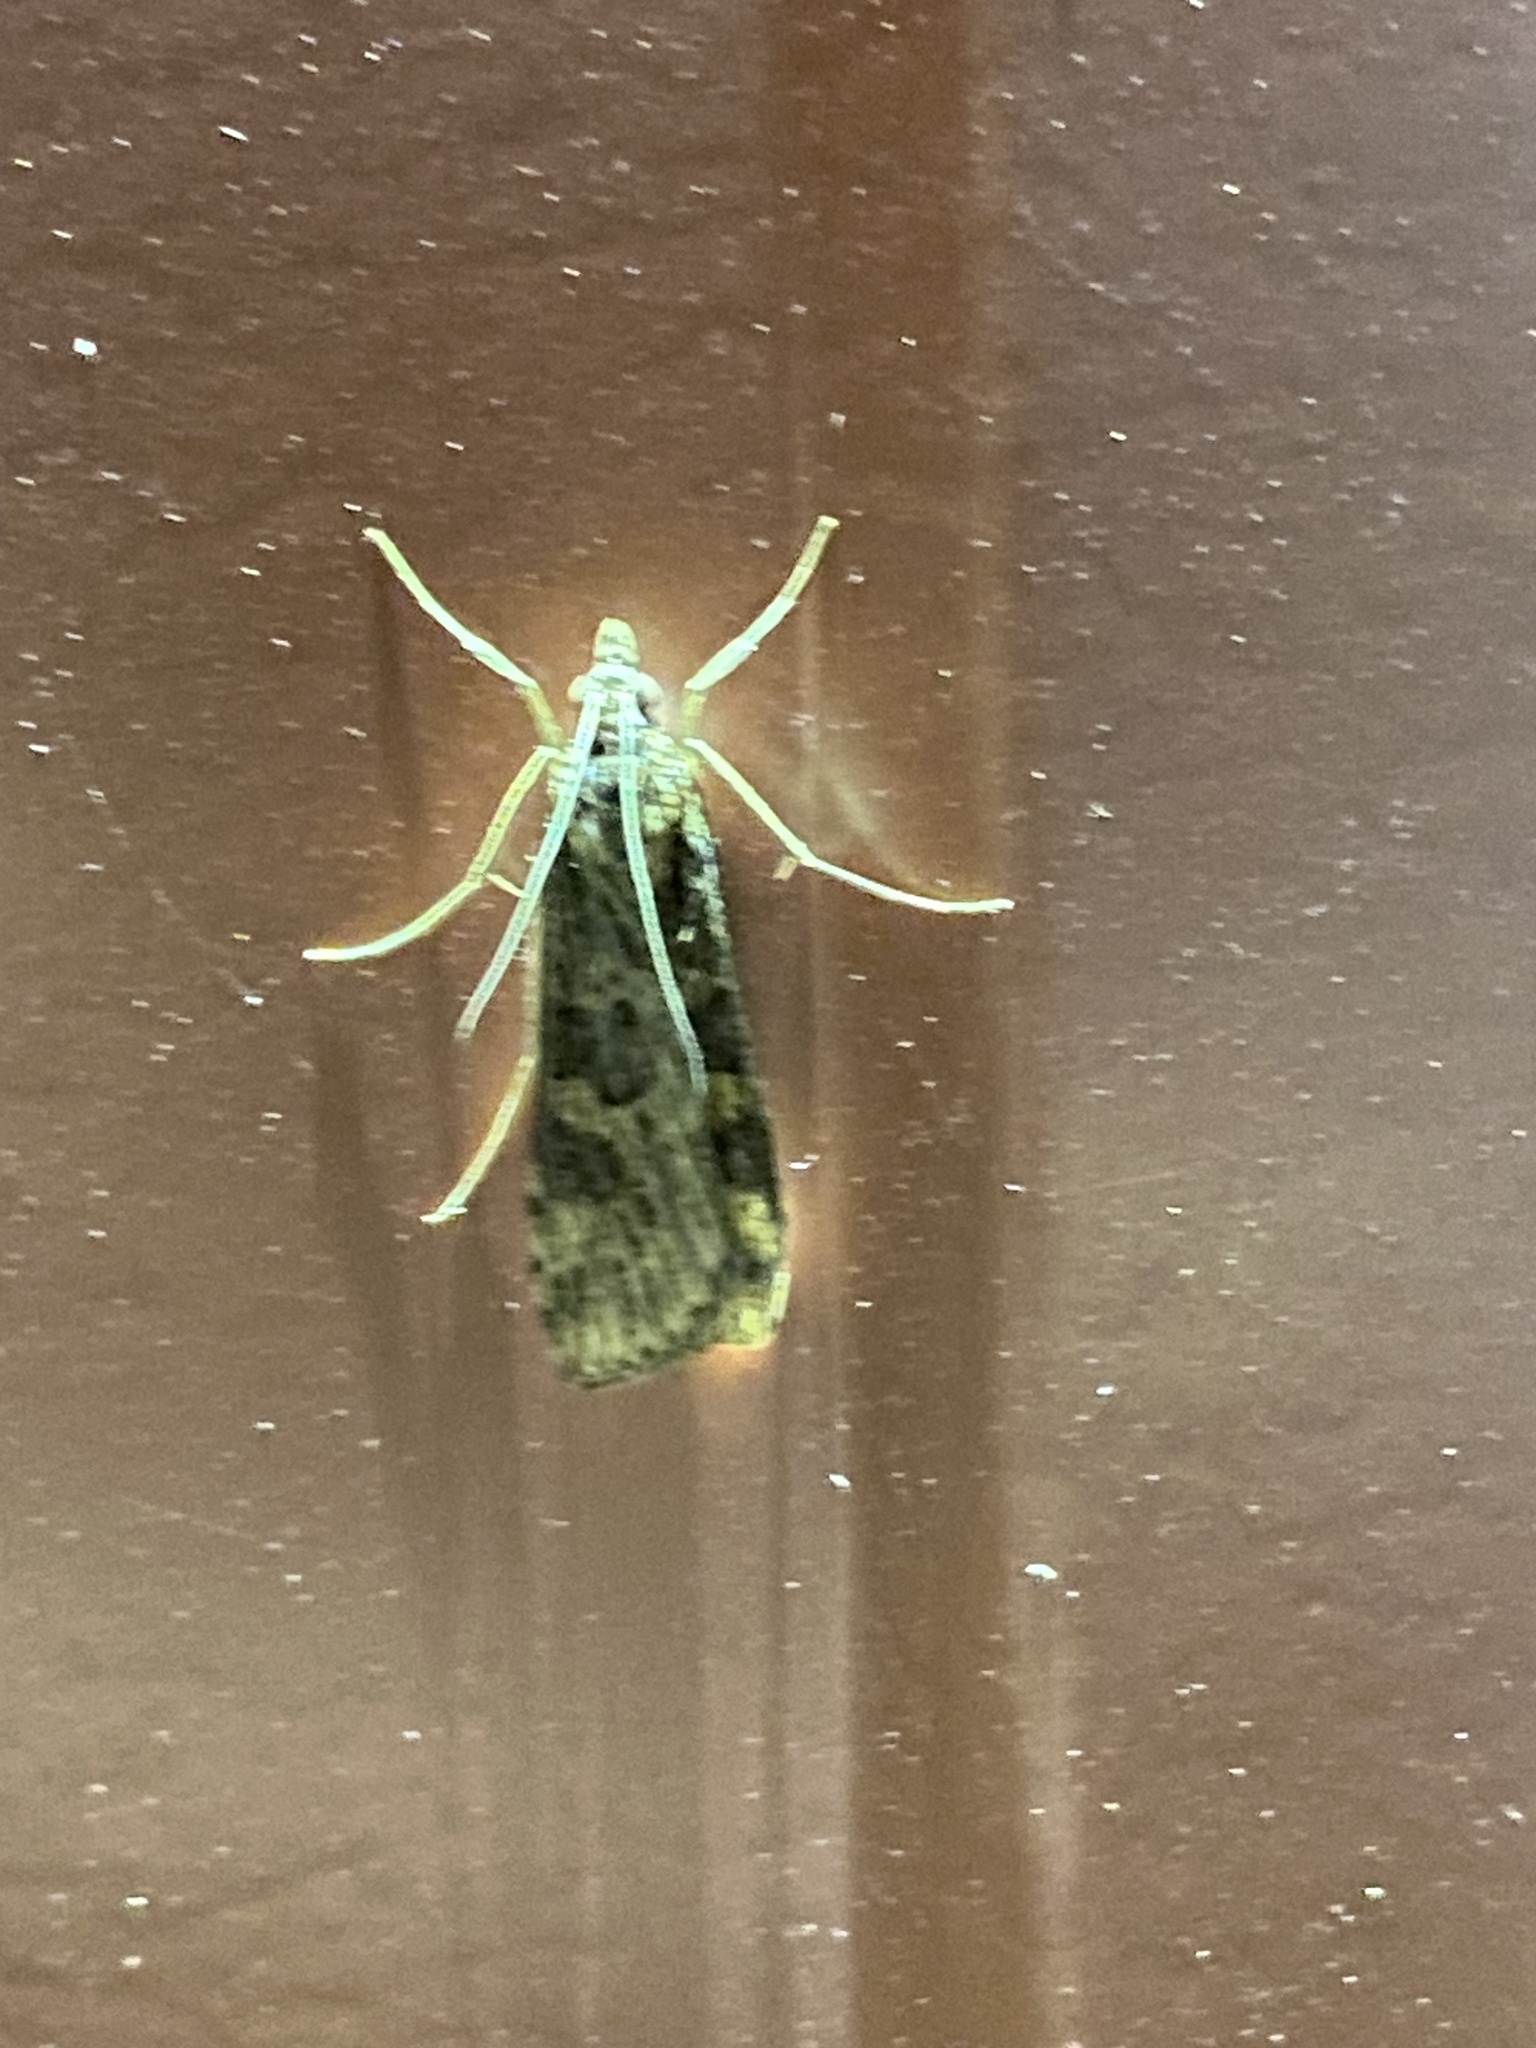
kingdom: Animalia
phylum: Arthropoda
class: Insecta
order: Lepidoptera
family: Crambidae
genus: Nomophila
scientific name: Nomophila nearctica
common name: American rush veneer
